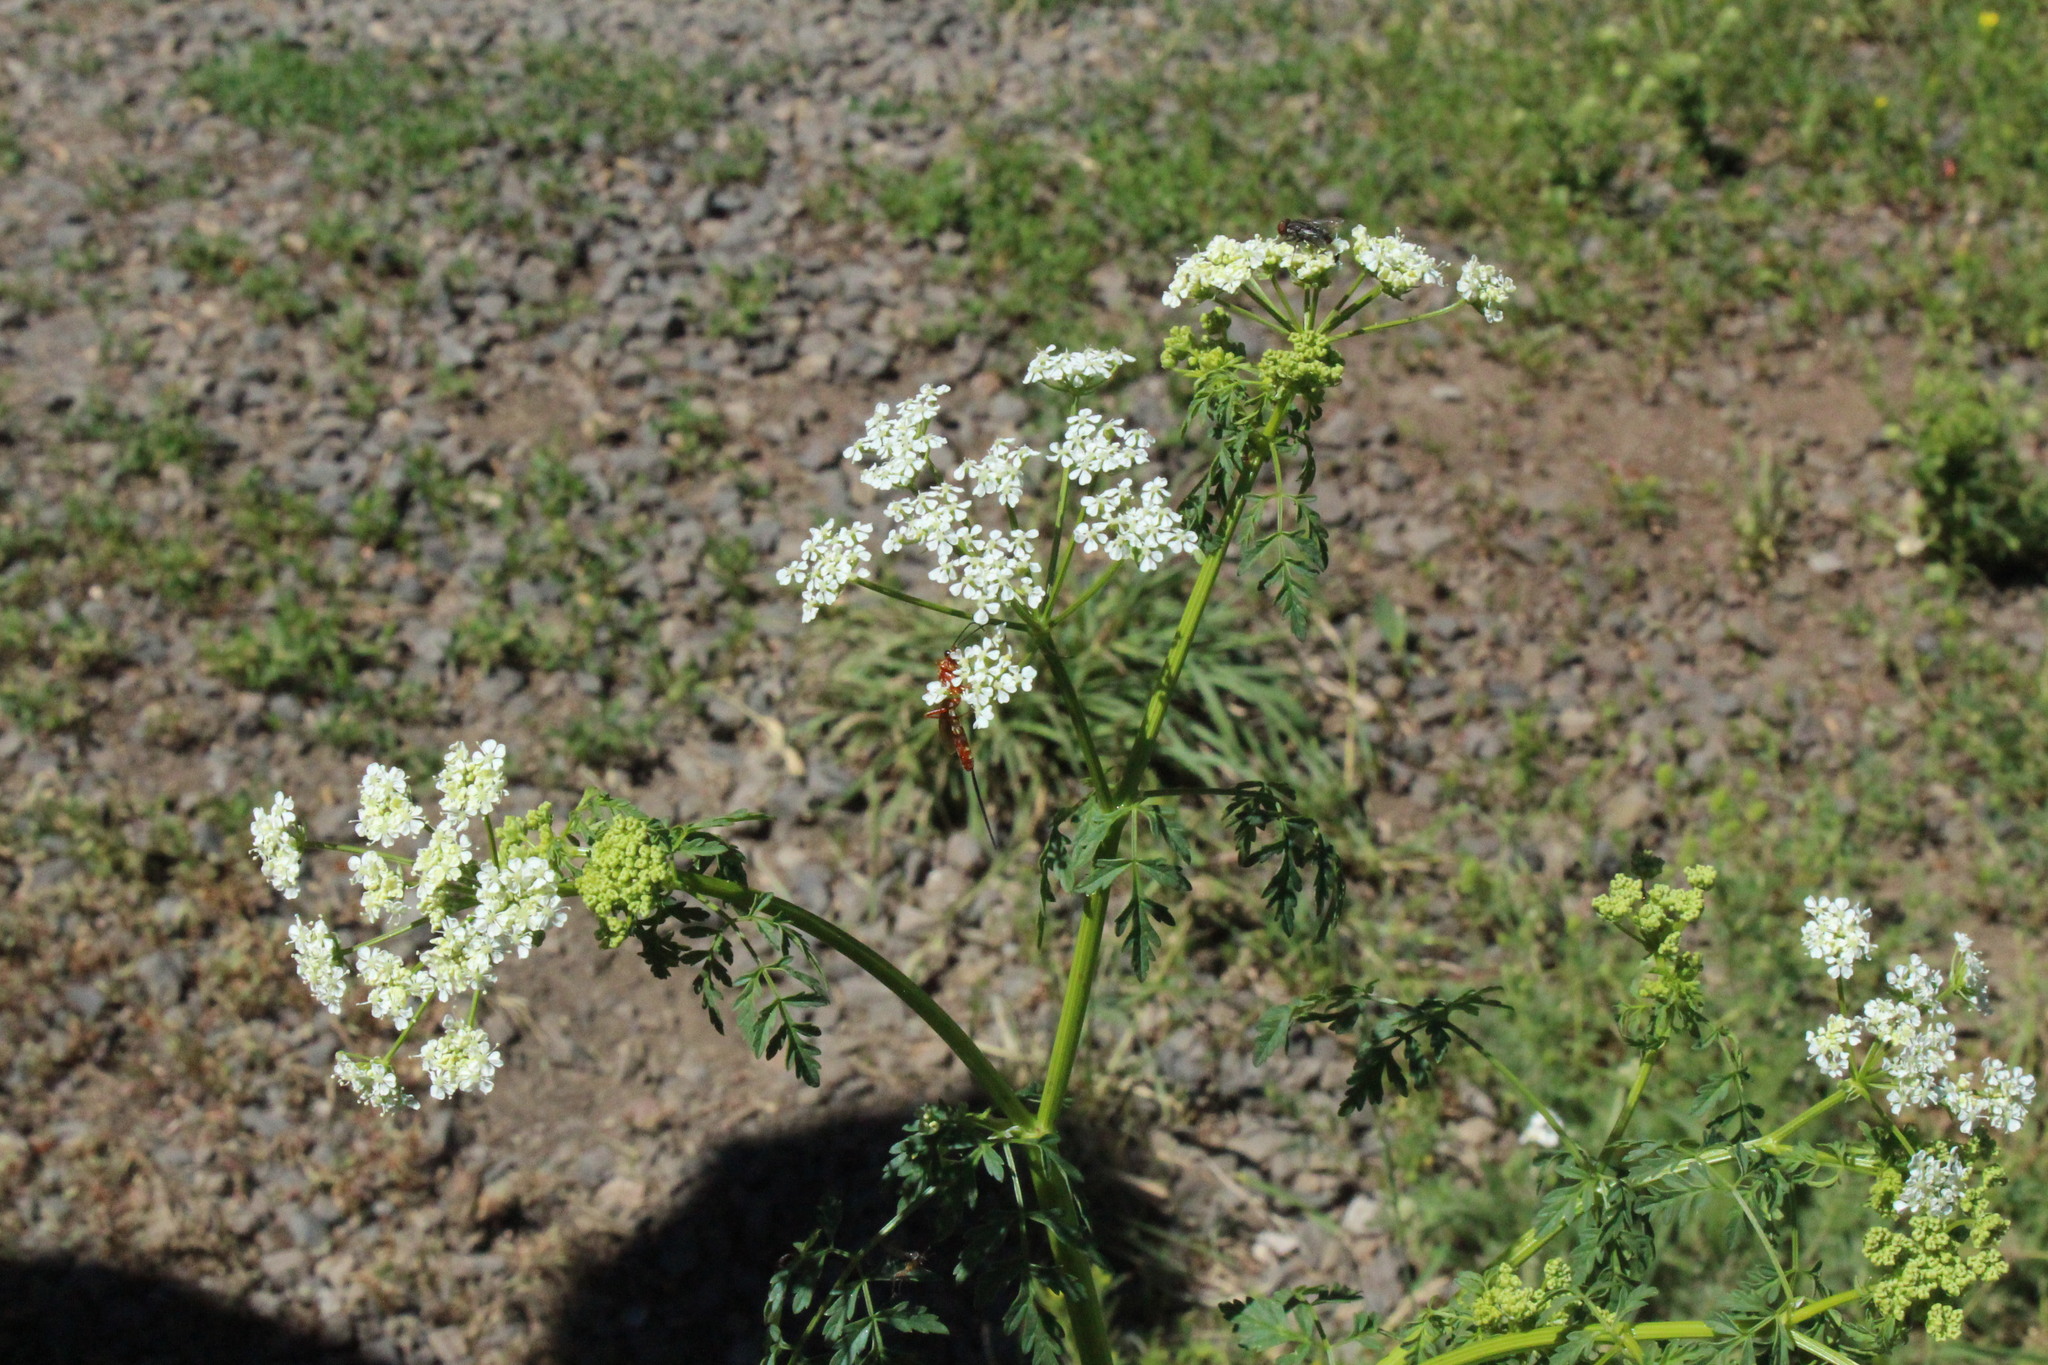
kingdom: Plantae
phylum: Tracheophyta
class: Magnoliopsida
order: Apiales
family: Apiaceae
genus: Daucus
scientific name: Daucus carota
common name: Wild carrot
